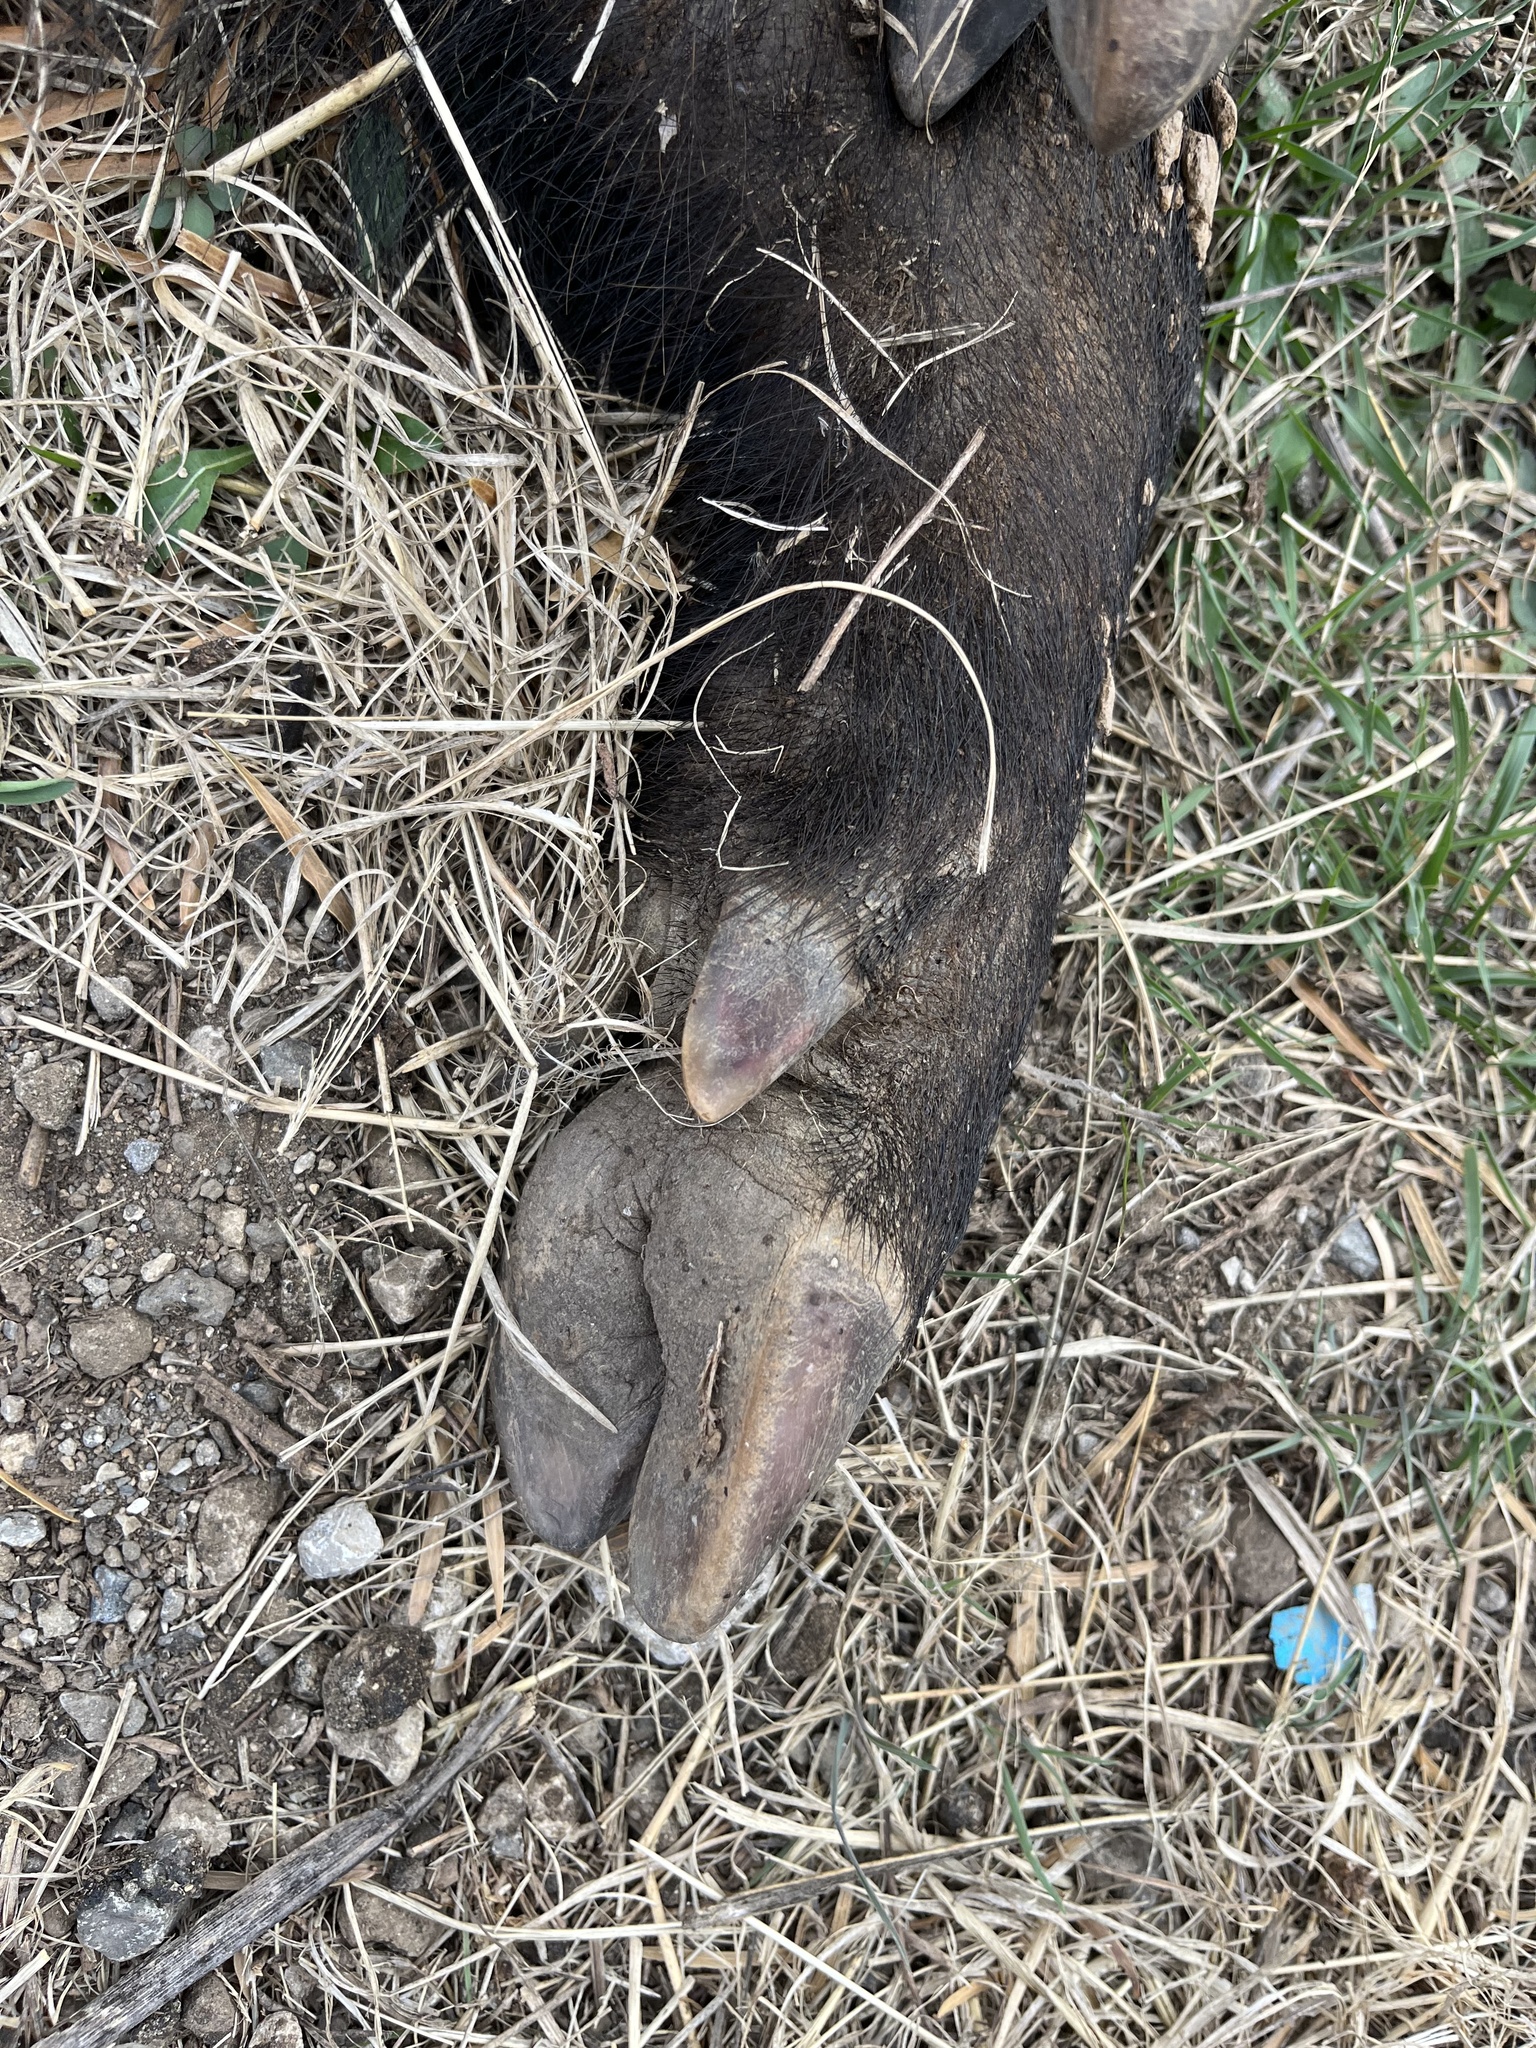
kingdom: Animalia
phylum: Chordata
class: Mammalia
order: Artiodactyla
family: Suidae
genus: Sus
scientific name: Sus scrofa
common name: Wild boar
